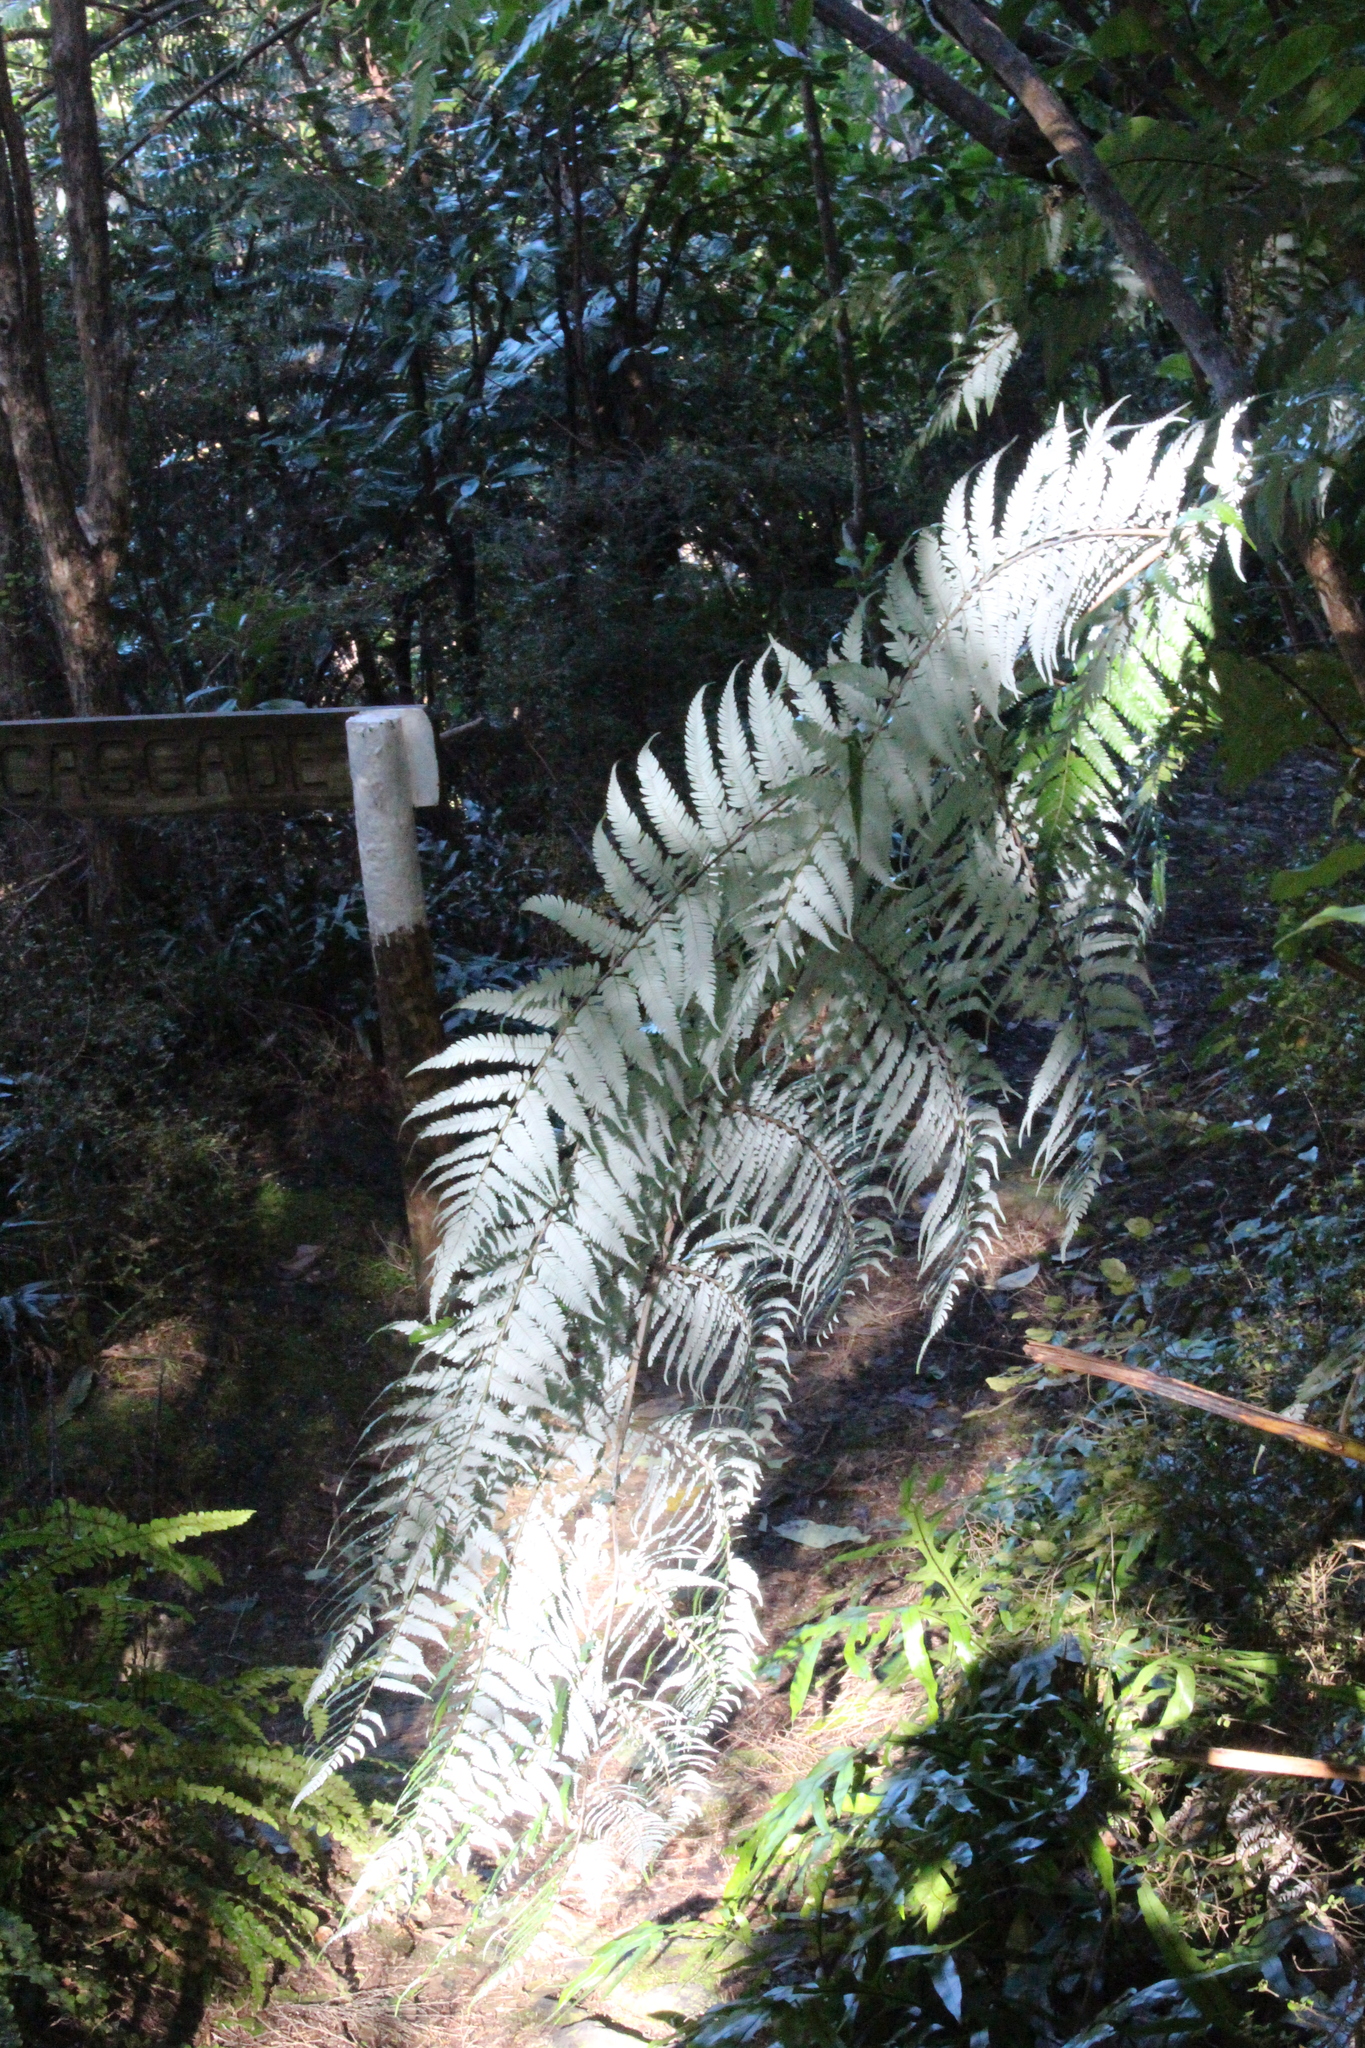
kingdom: Plantae
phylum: Tracheophyta
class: Polypodiopsida
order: Cyatheales
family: Cyatheaceae
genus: Alsophila
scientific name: Alsophila dealbata
